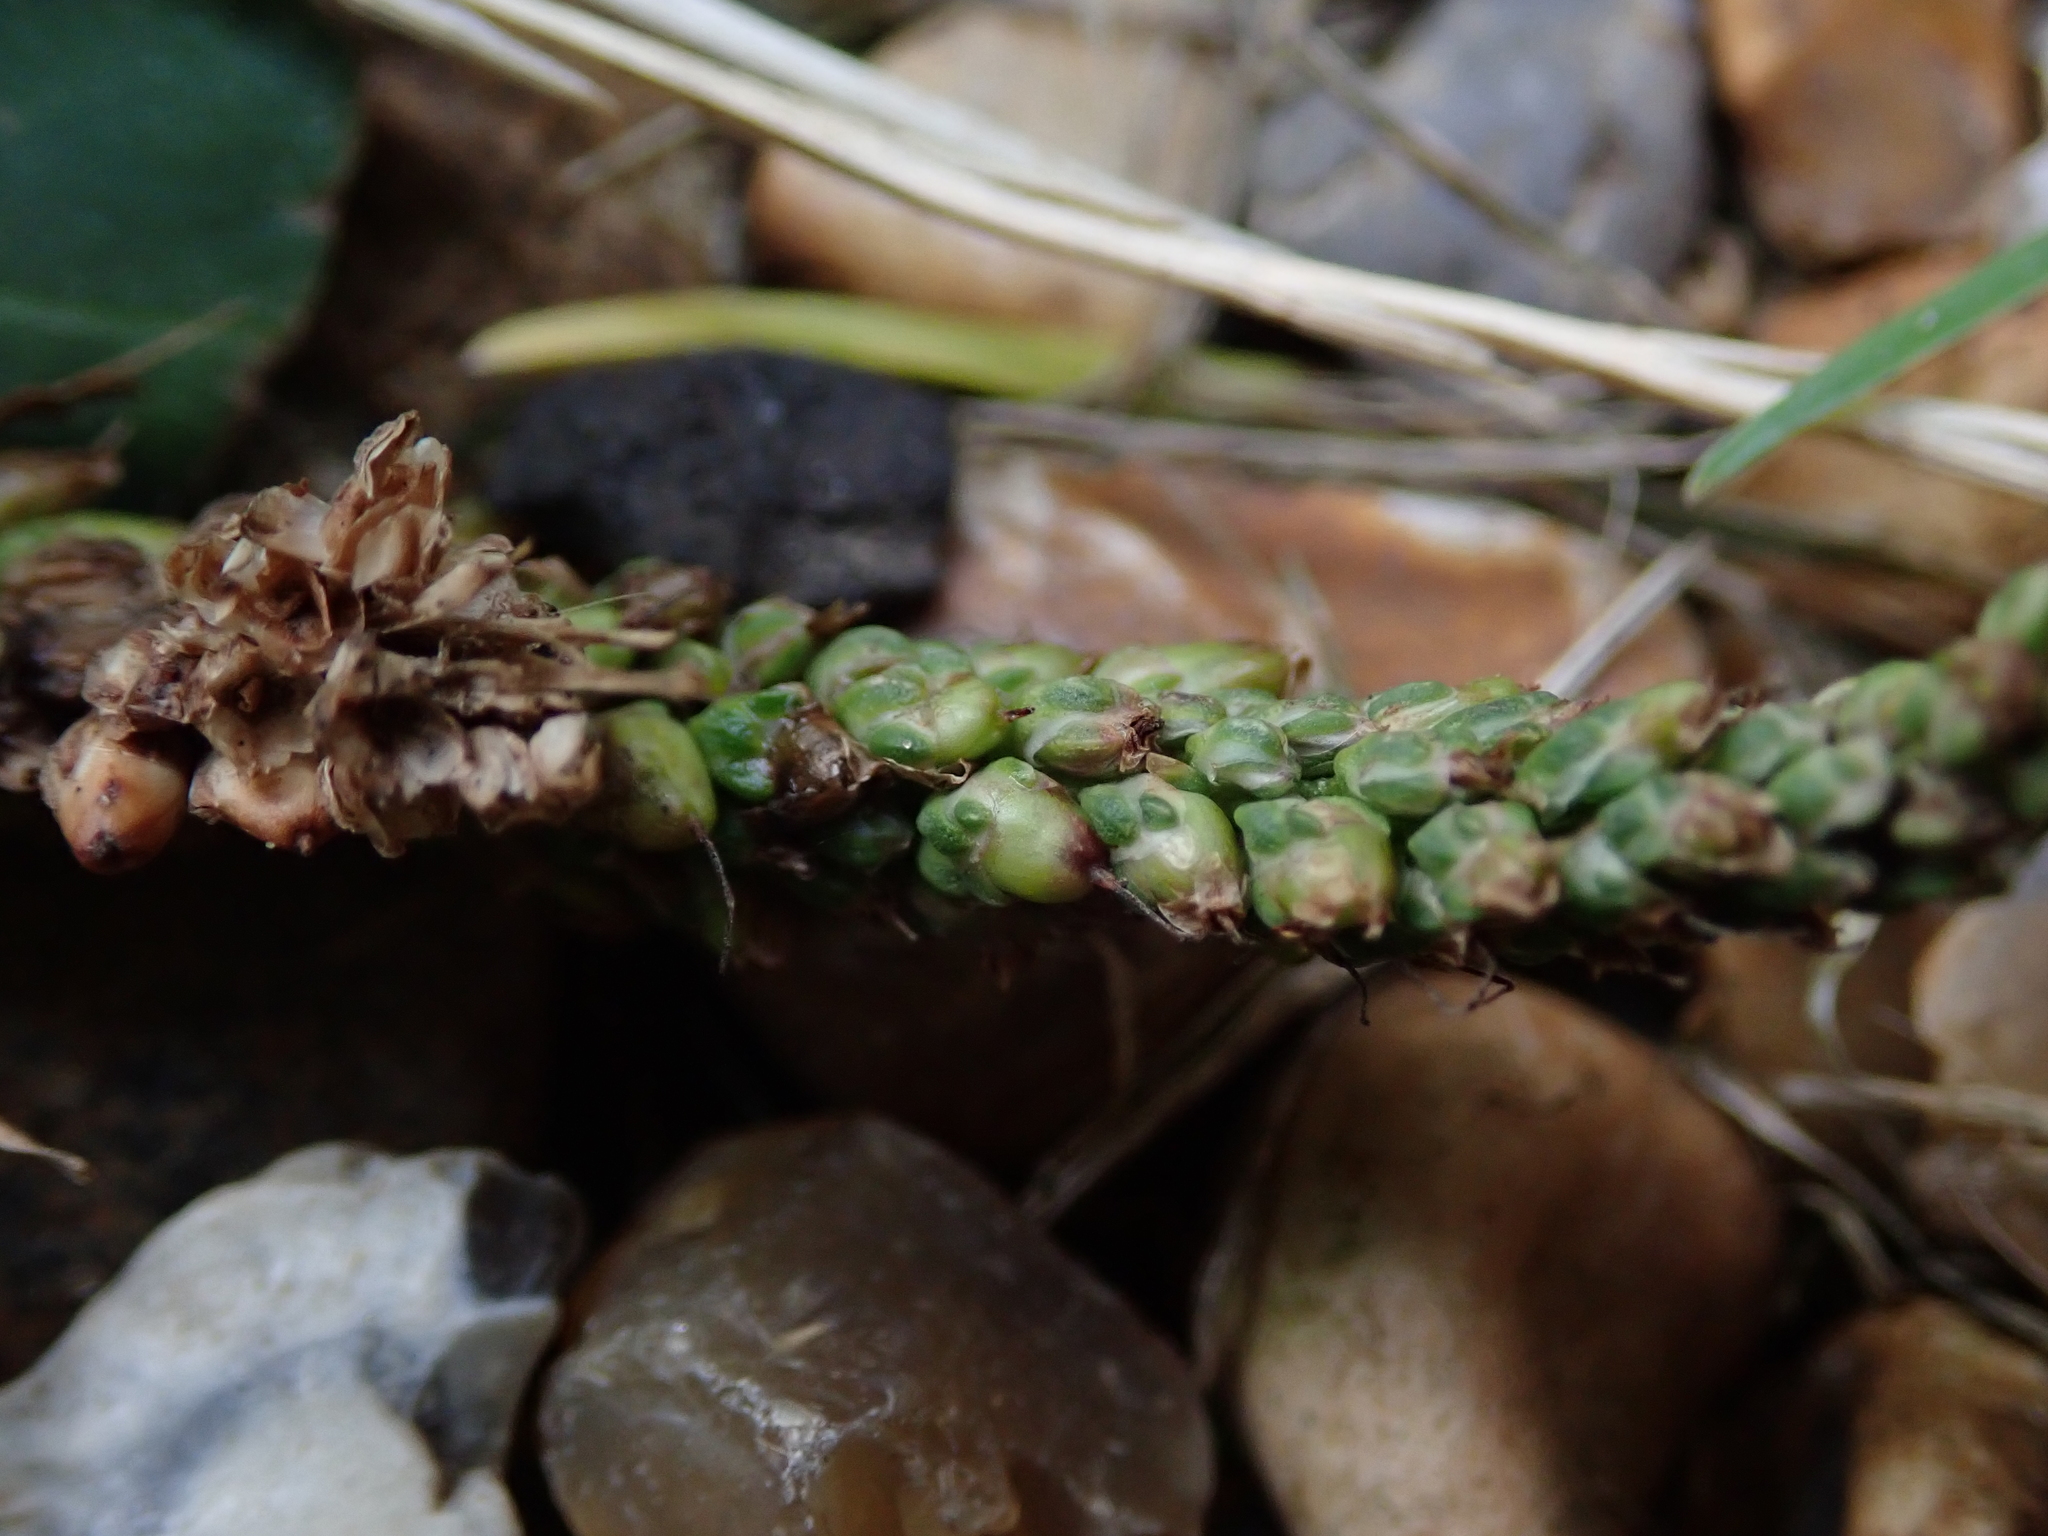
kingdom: Plantae
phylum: Tracheophyta
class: Magnoliopsida
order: Lamiales
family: Plantaginaceae
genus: Plantago
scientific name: Plantago major
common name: Common plantain
